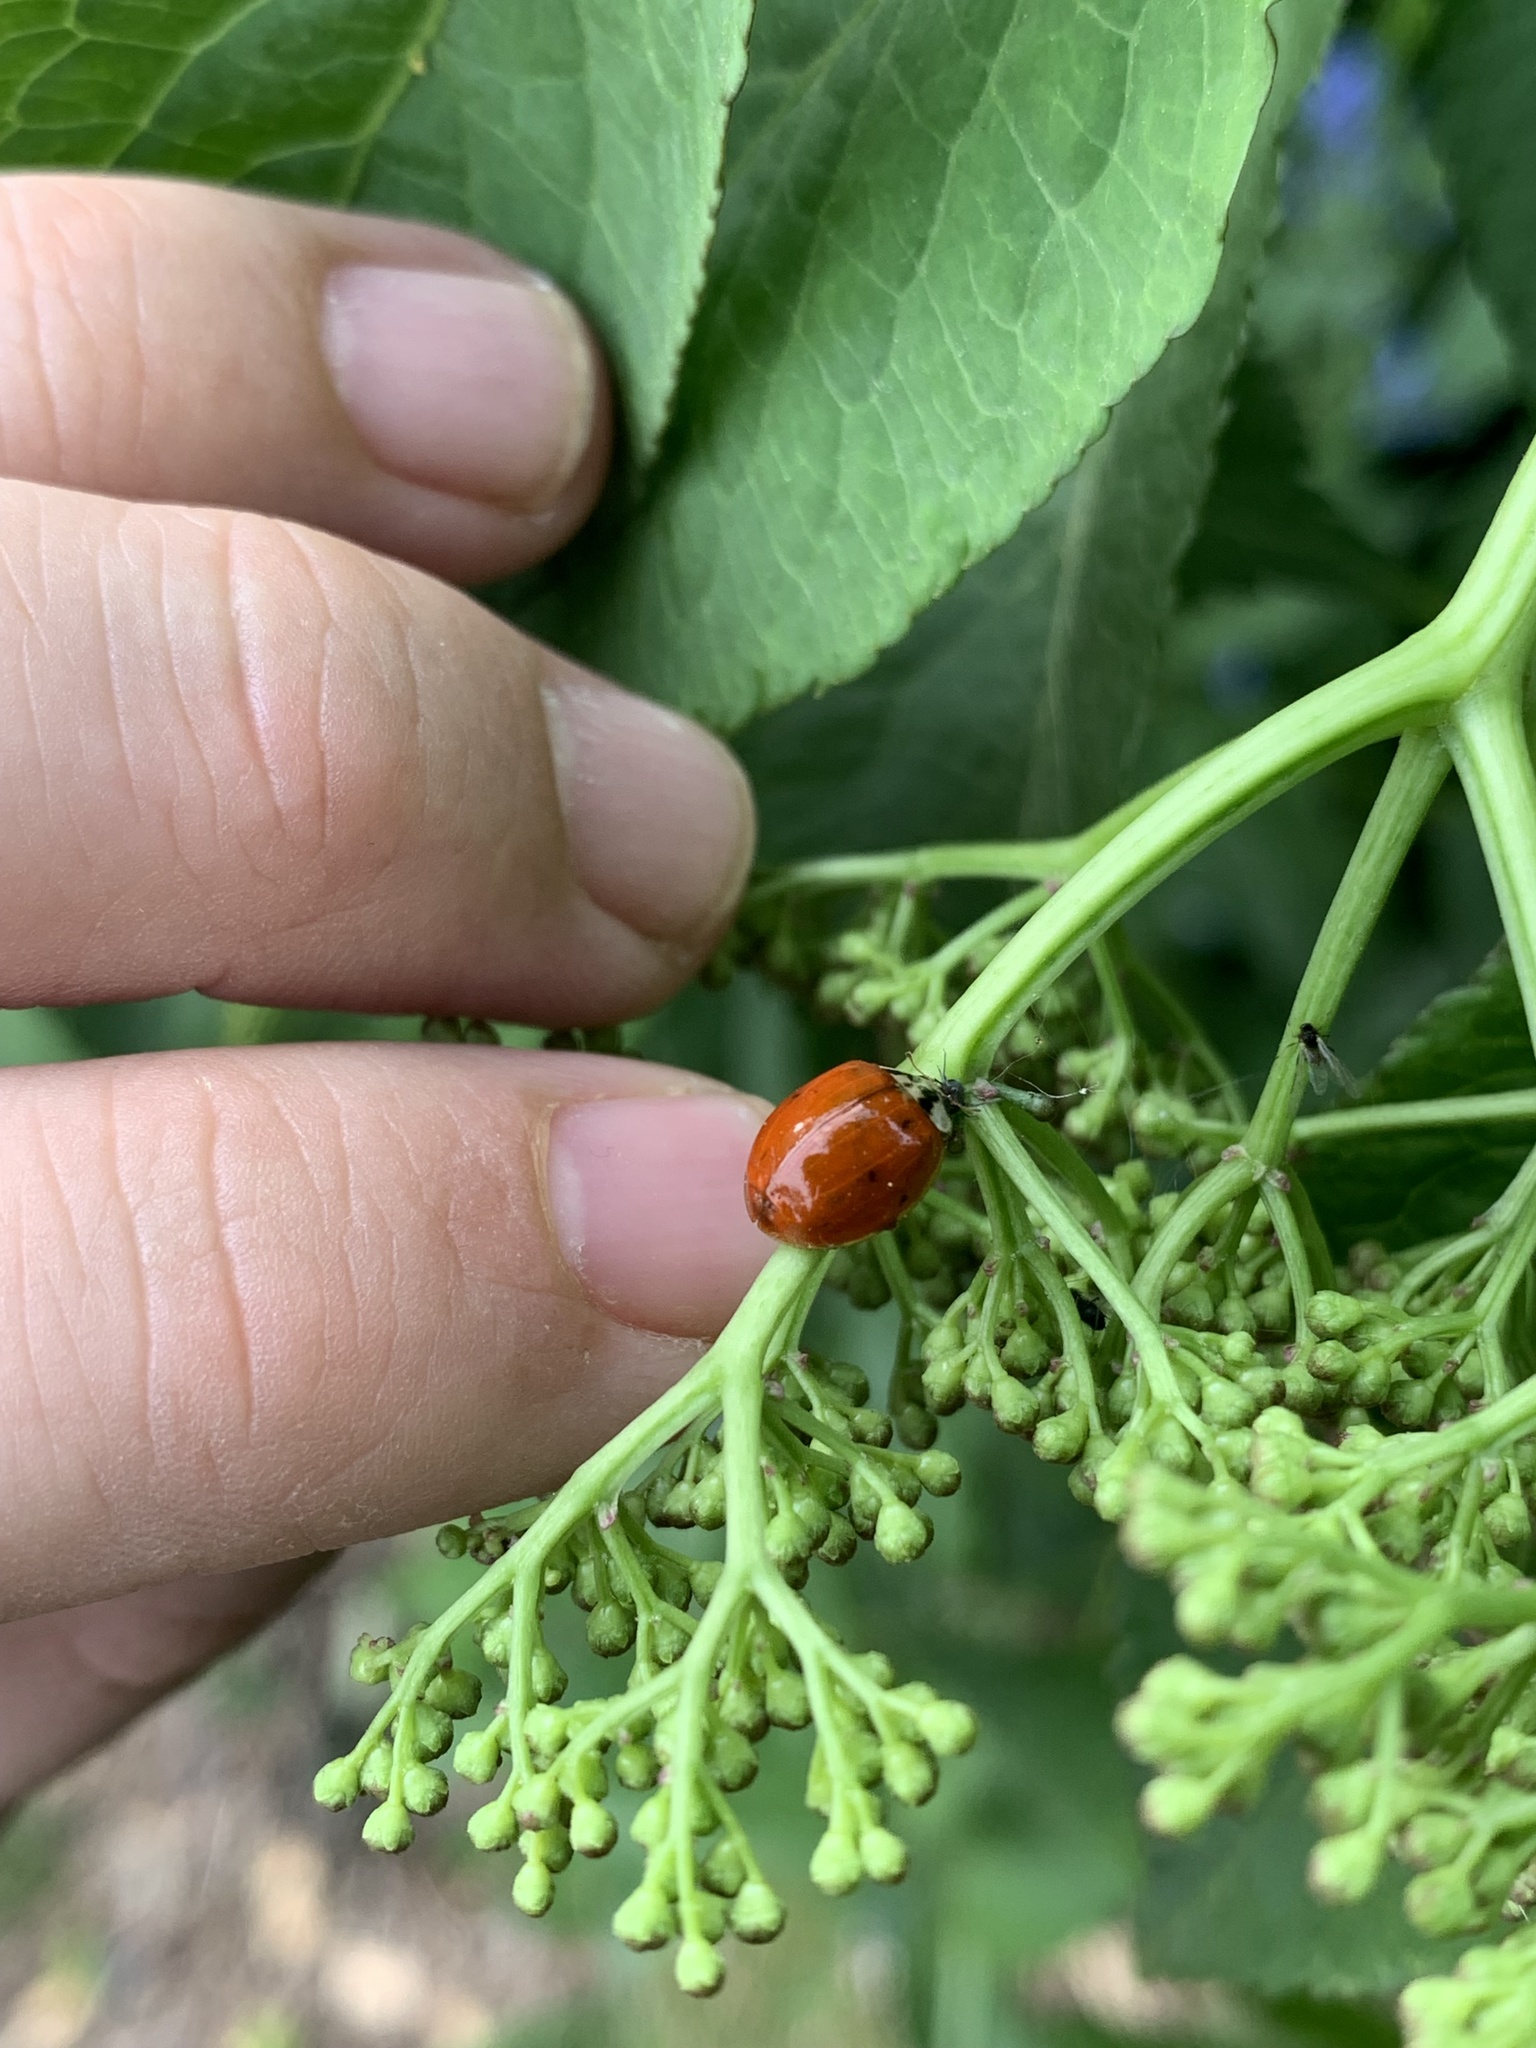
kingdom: Animalia
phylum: Arthropoda
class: Insecta
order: Coleoptera
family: Coccinellidae
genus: Harmonia
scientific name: Harmonia axyridis
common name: Harlequin ladybird
